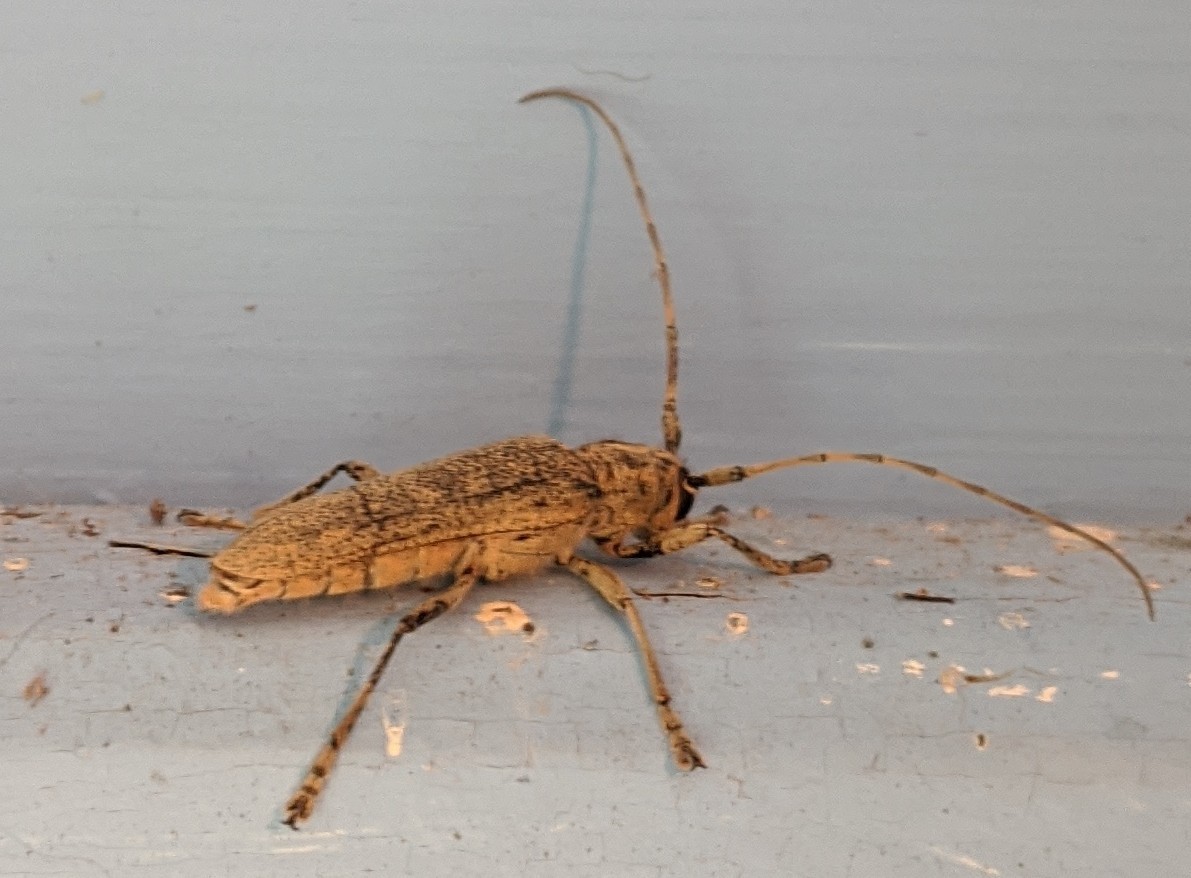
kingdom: Animalia
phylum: Arthropoda
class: Insecta
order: Coleoptera
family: Cerambycidae
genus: Saperda
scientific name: Saperda calcarata
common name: Poplar borer
